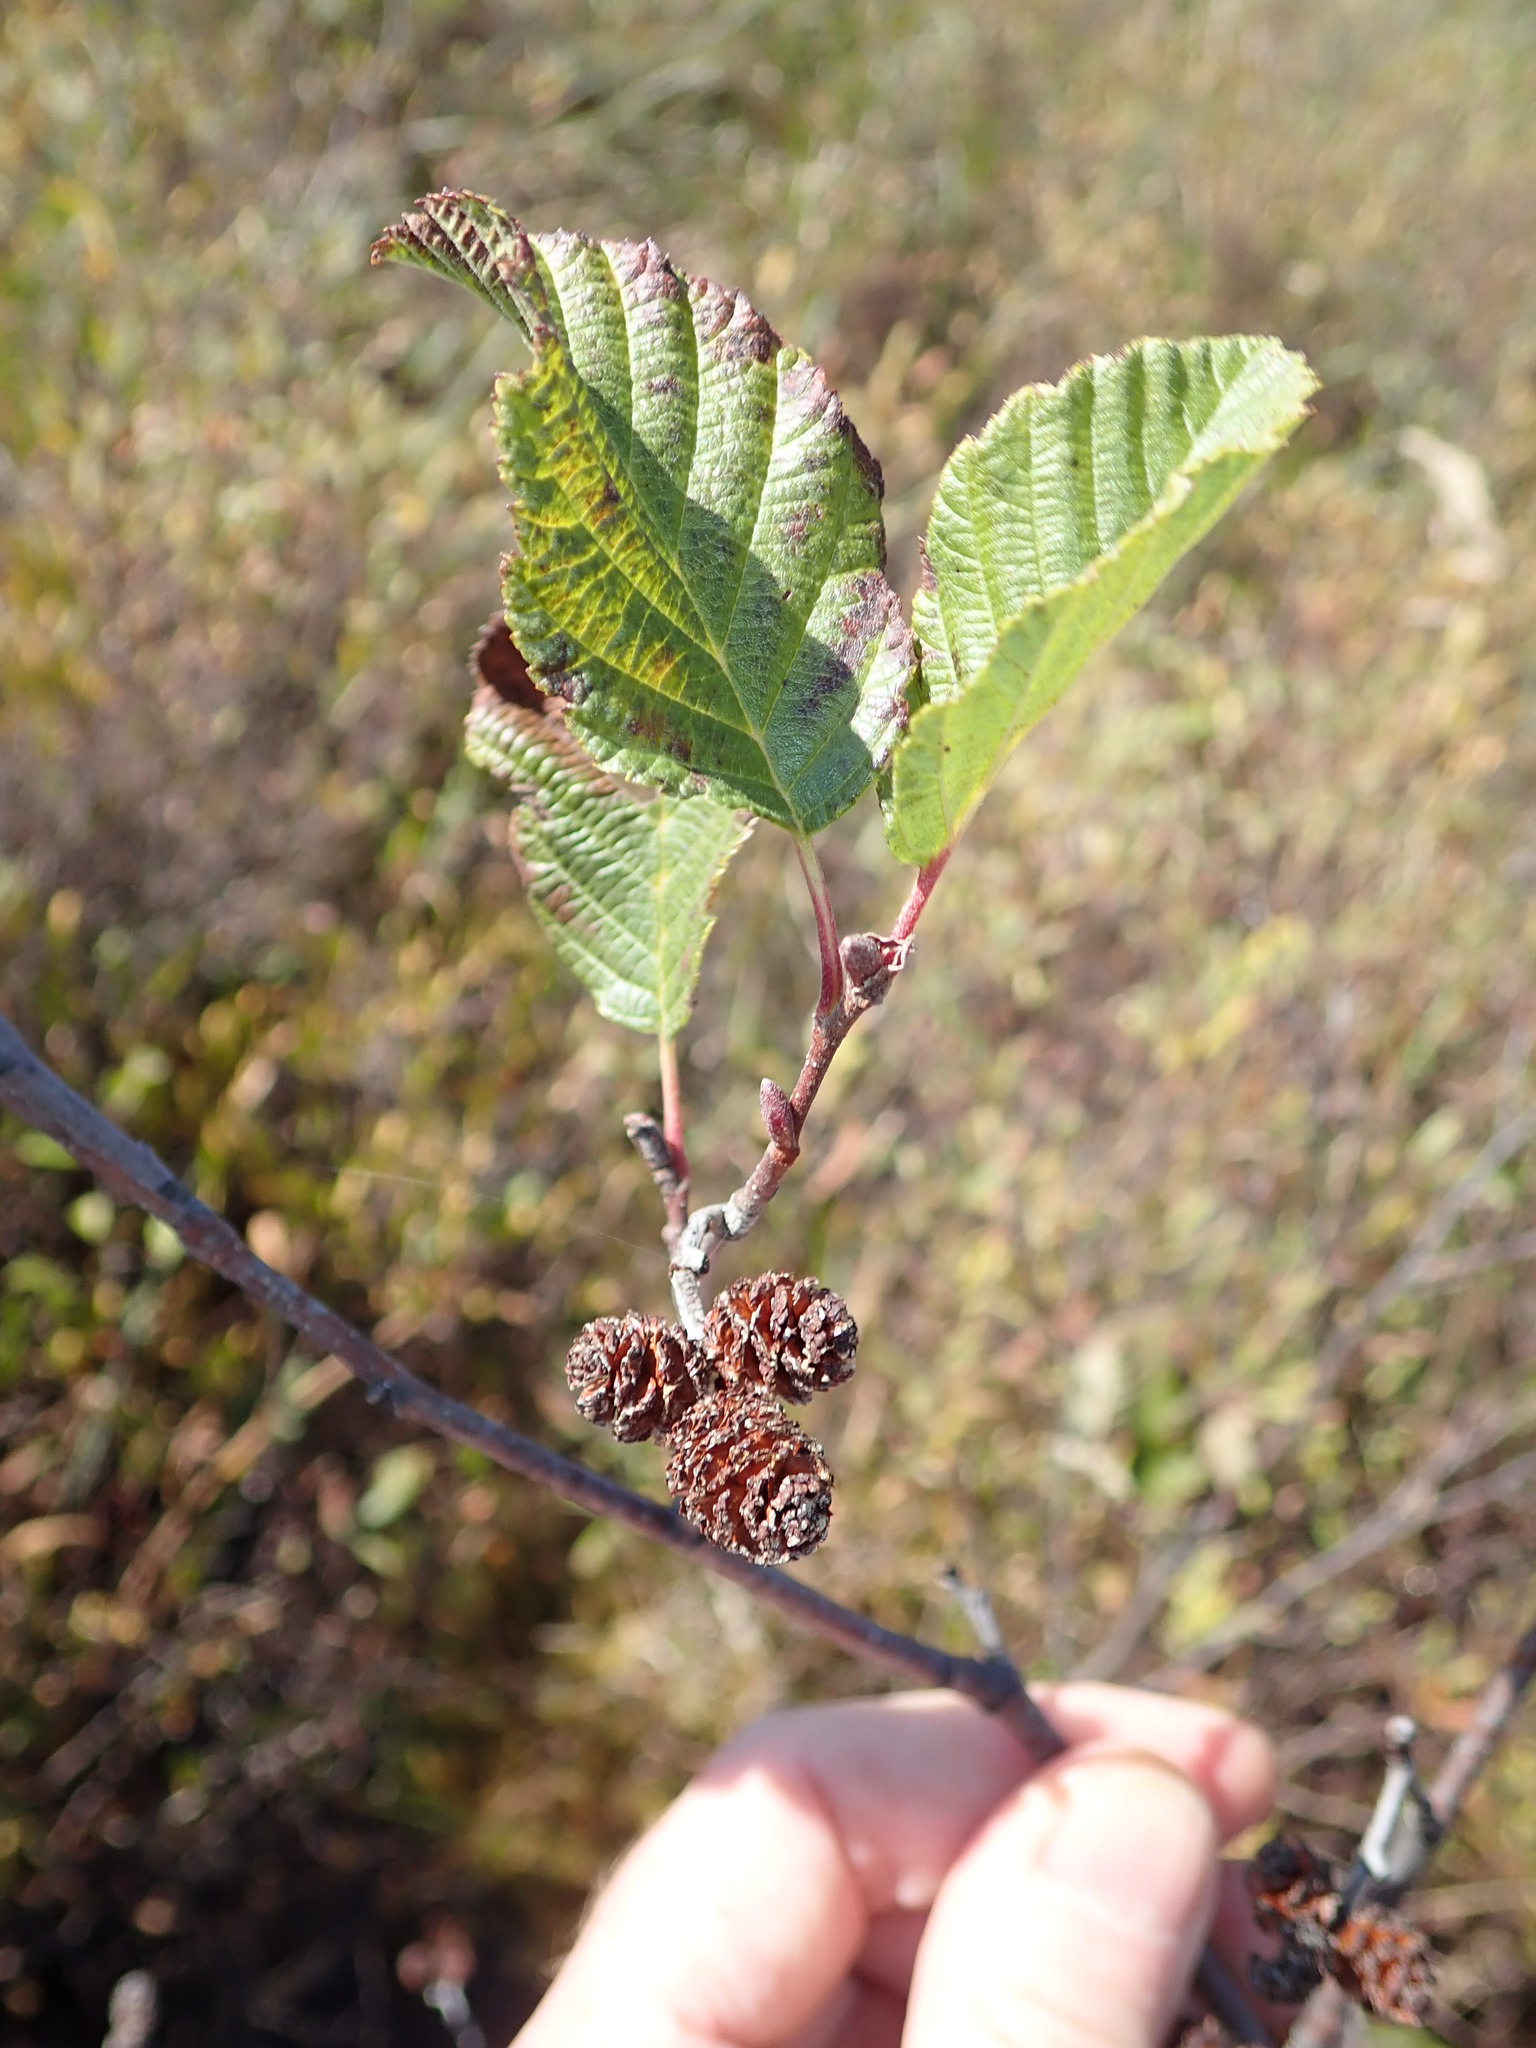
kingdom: Plantae
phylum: Tracheophyta
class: Magnoliopsida
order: Fagales
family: Betulaceae
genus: Alnus
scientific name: Alnus incana
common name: Grey alder
